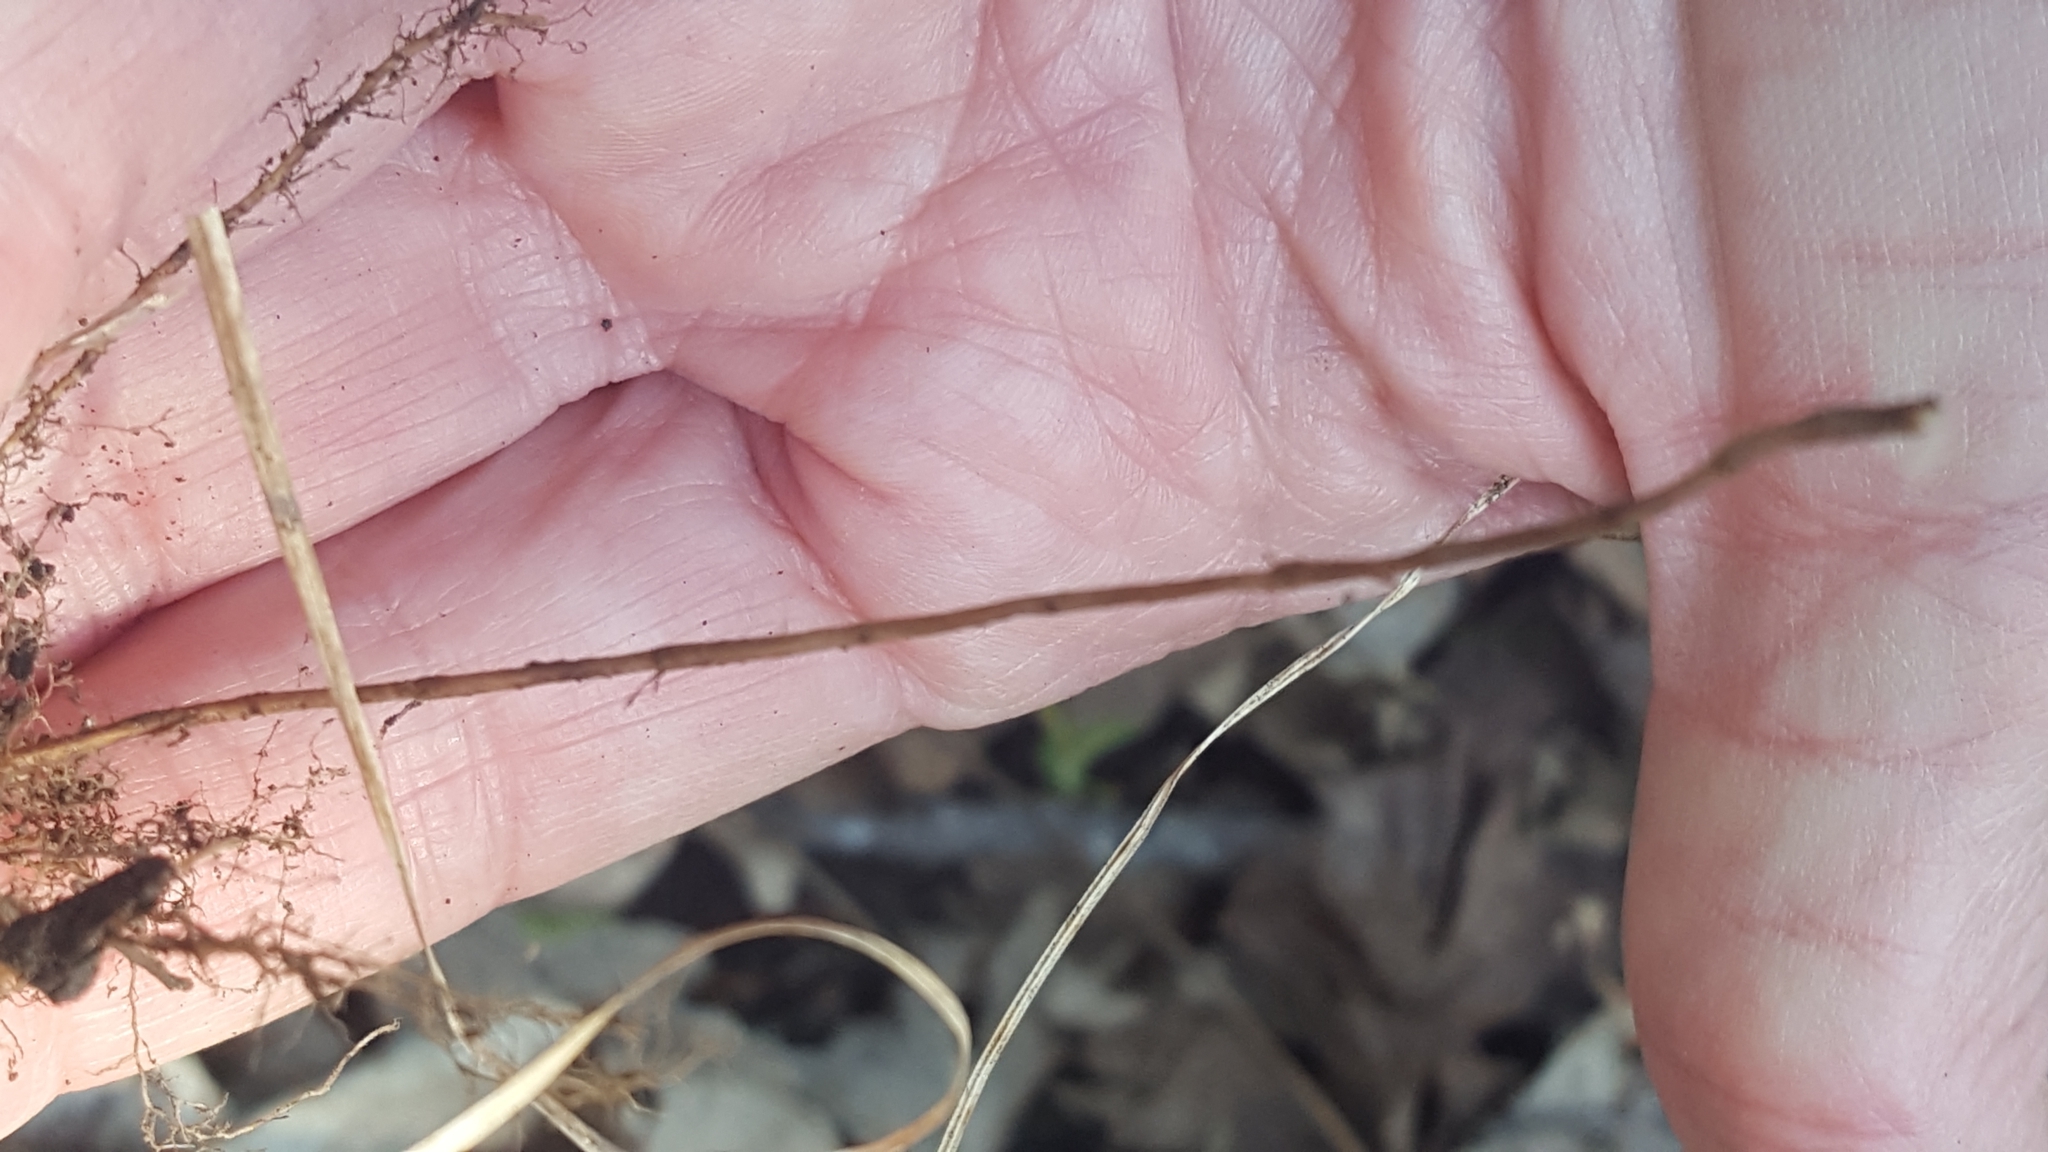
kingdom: Plantae
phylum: Tracheophyta
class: Liliopsida
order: Poales
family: Cyperaceae
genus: Carex
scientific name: Carex pensylvanica
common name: Common oak sedge
